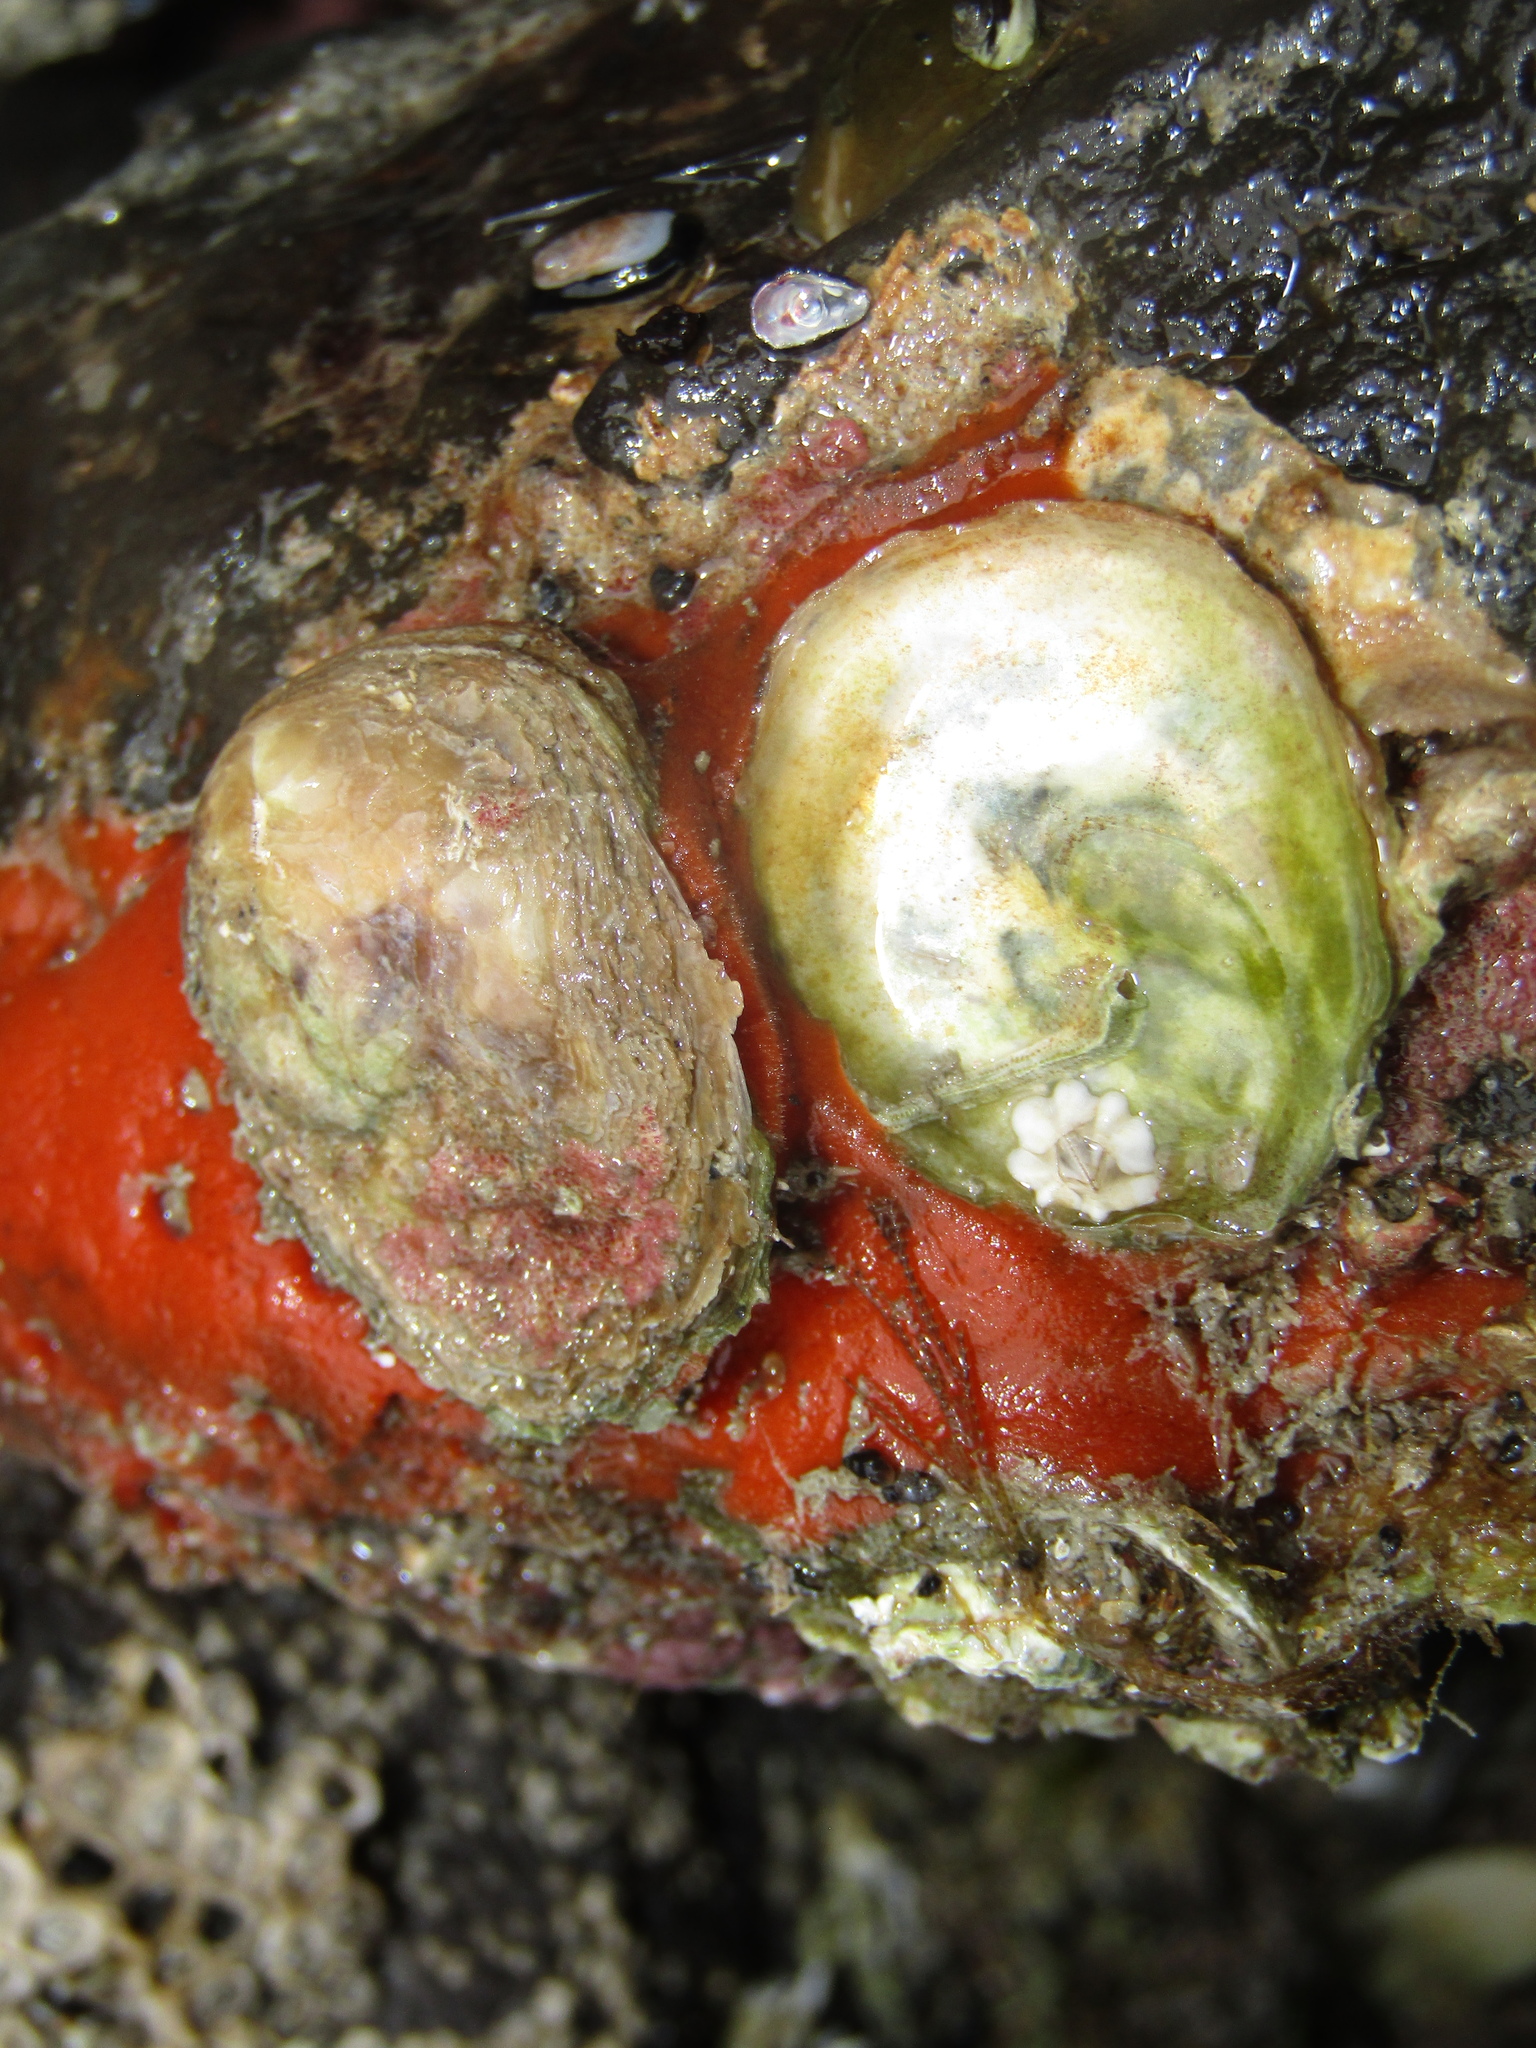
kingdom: Animalia
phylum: Mollusca
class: Bivalvia
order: Ostreida
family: Ostreidae
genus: Ostrea
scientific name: Ostrea chilensis
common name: Chilean oyster
